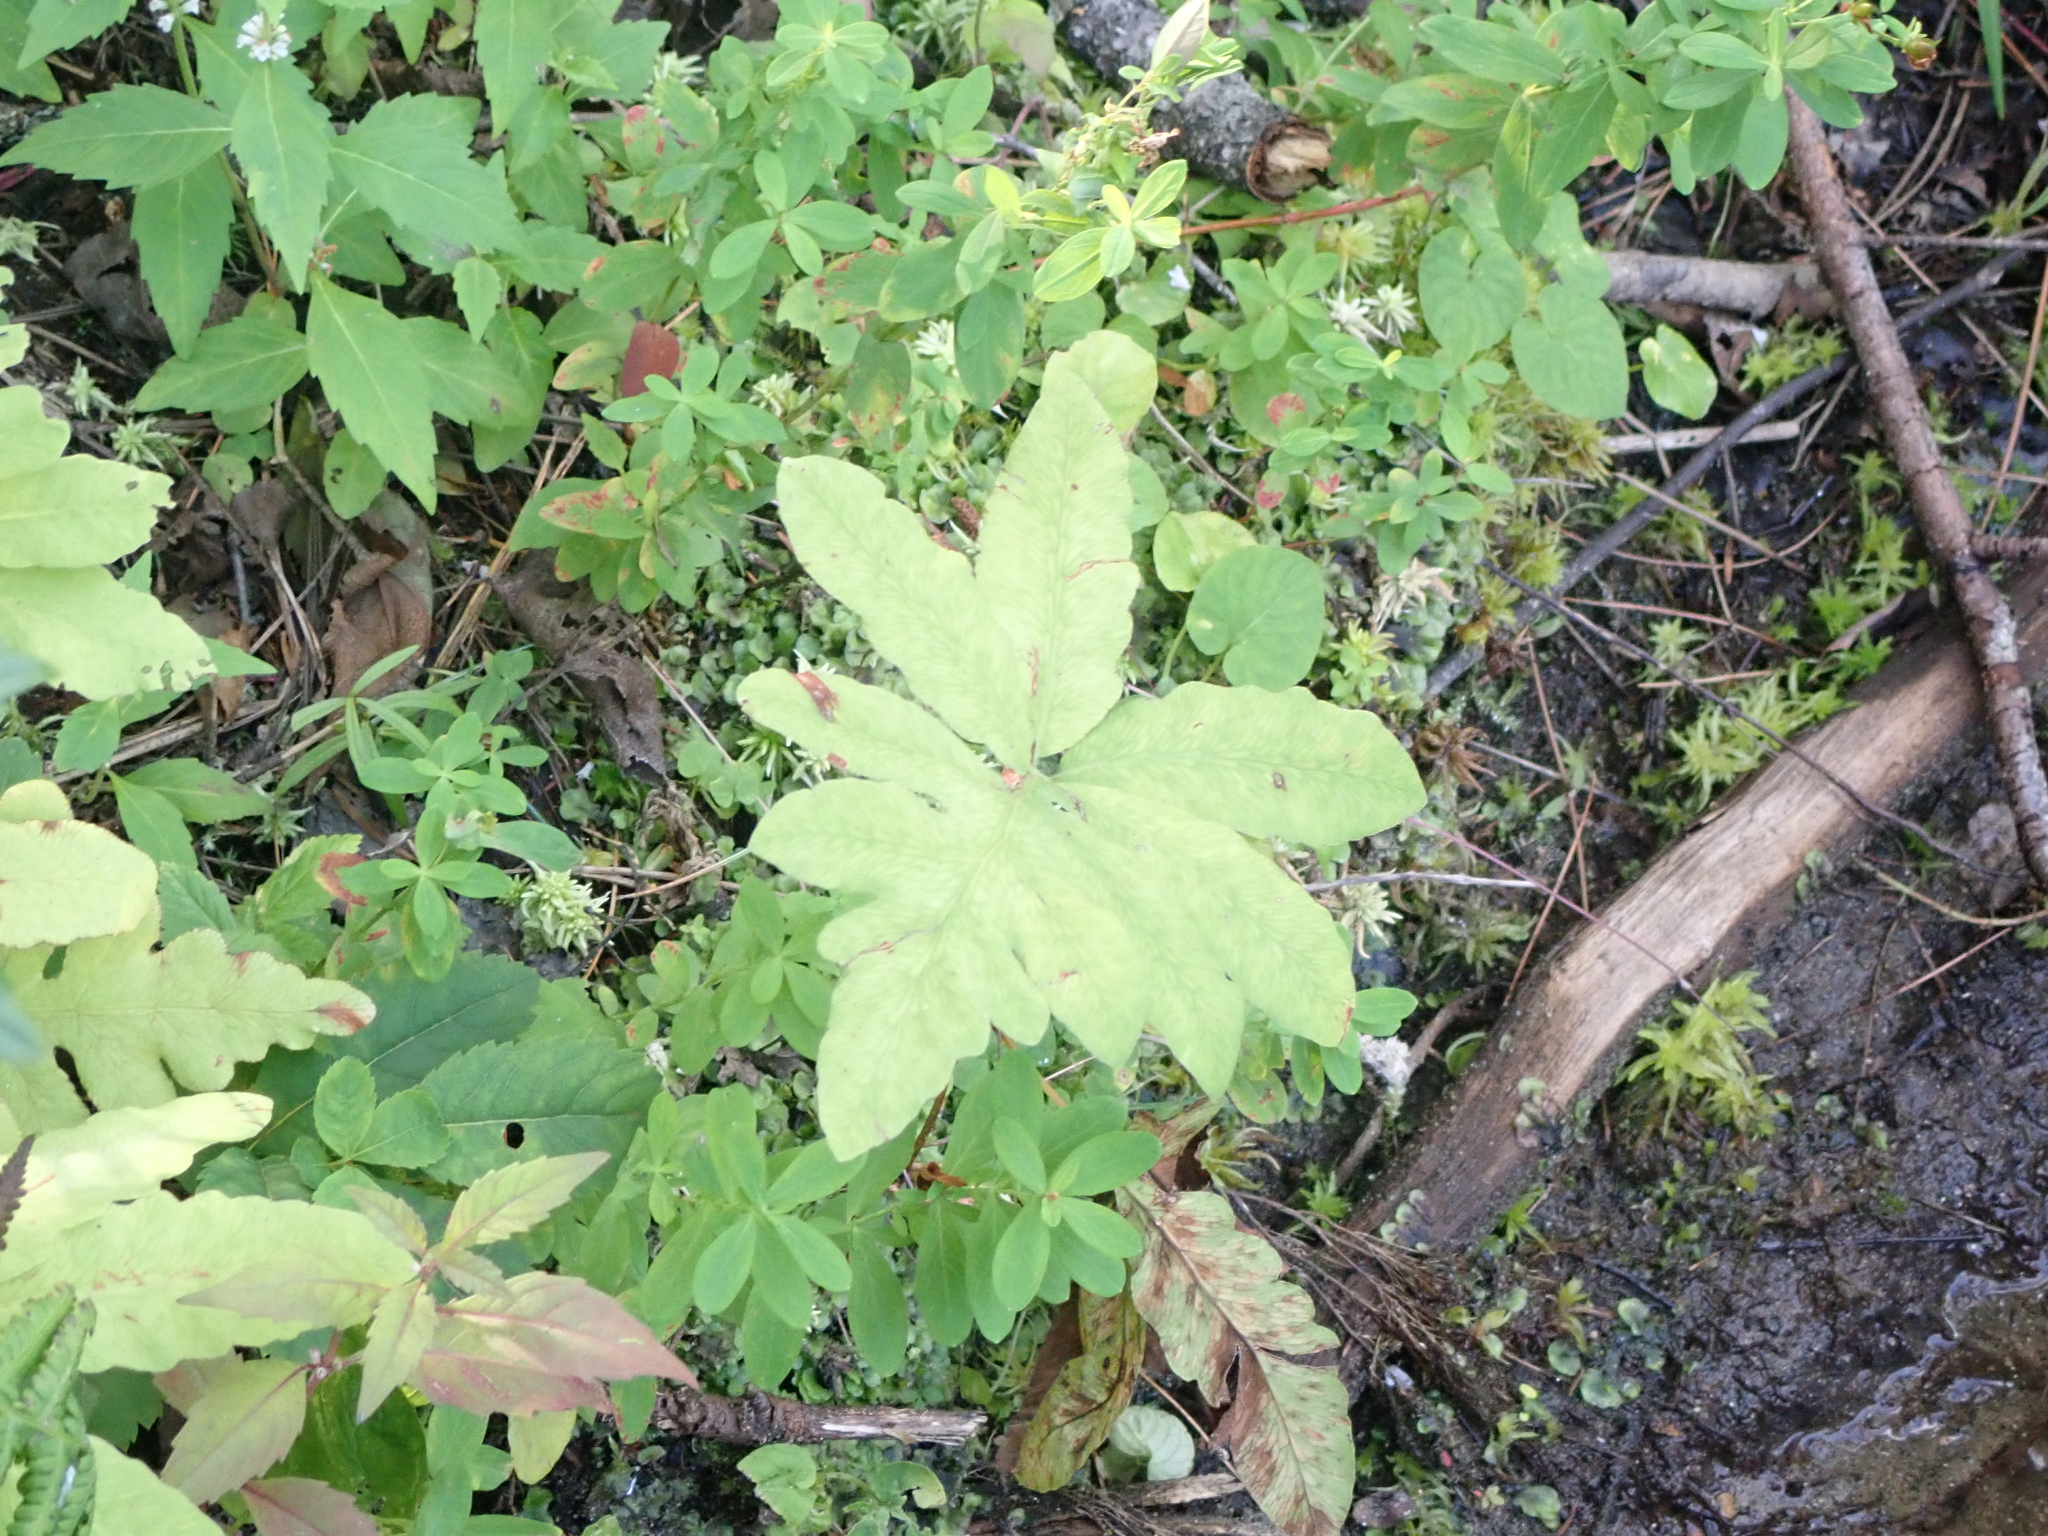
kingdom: Plantae
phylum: Tracheophyta
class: Polypodiopsida
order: Polypodiales
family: Onocleaceae
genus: Onoclea
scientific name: Onoclea sensibilis
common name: Sensitive fern
